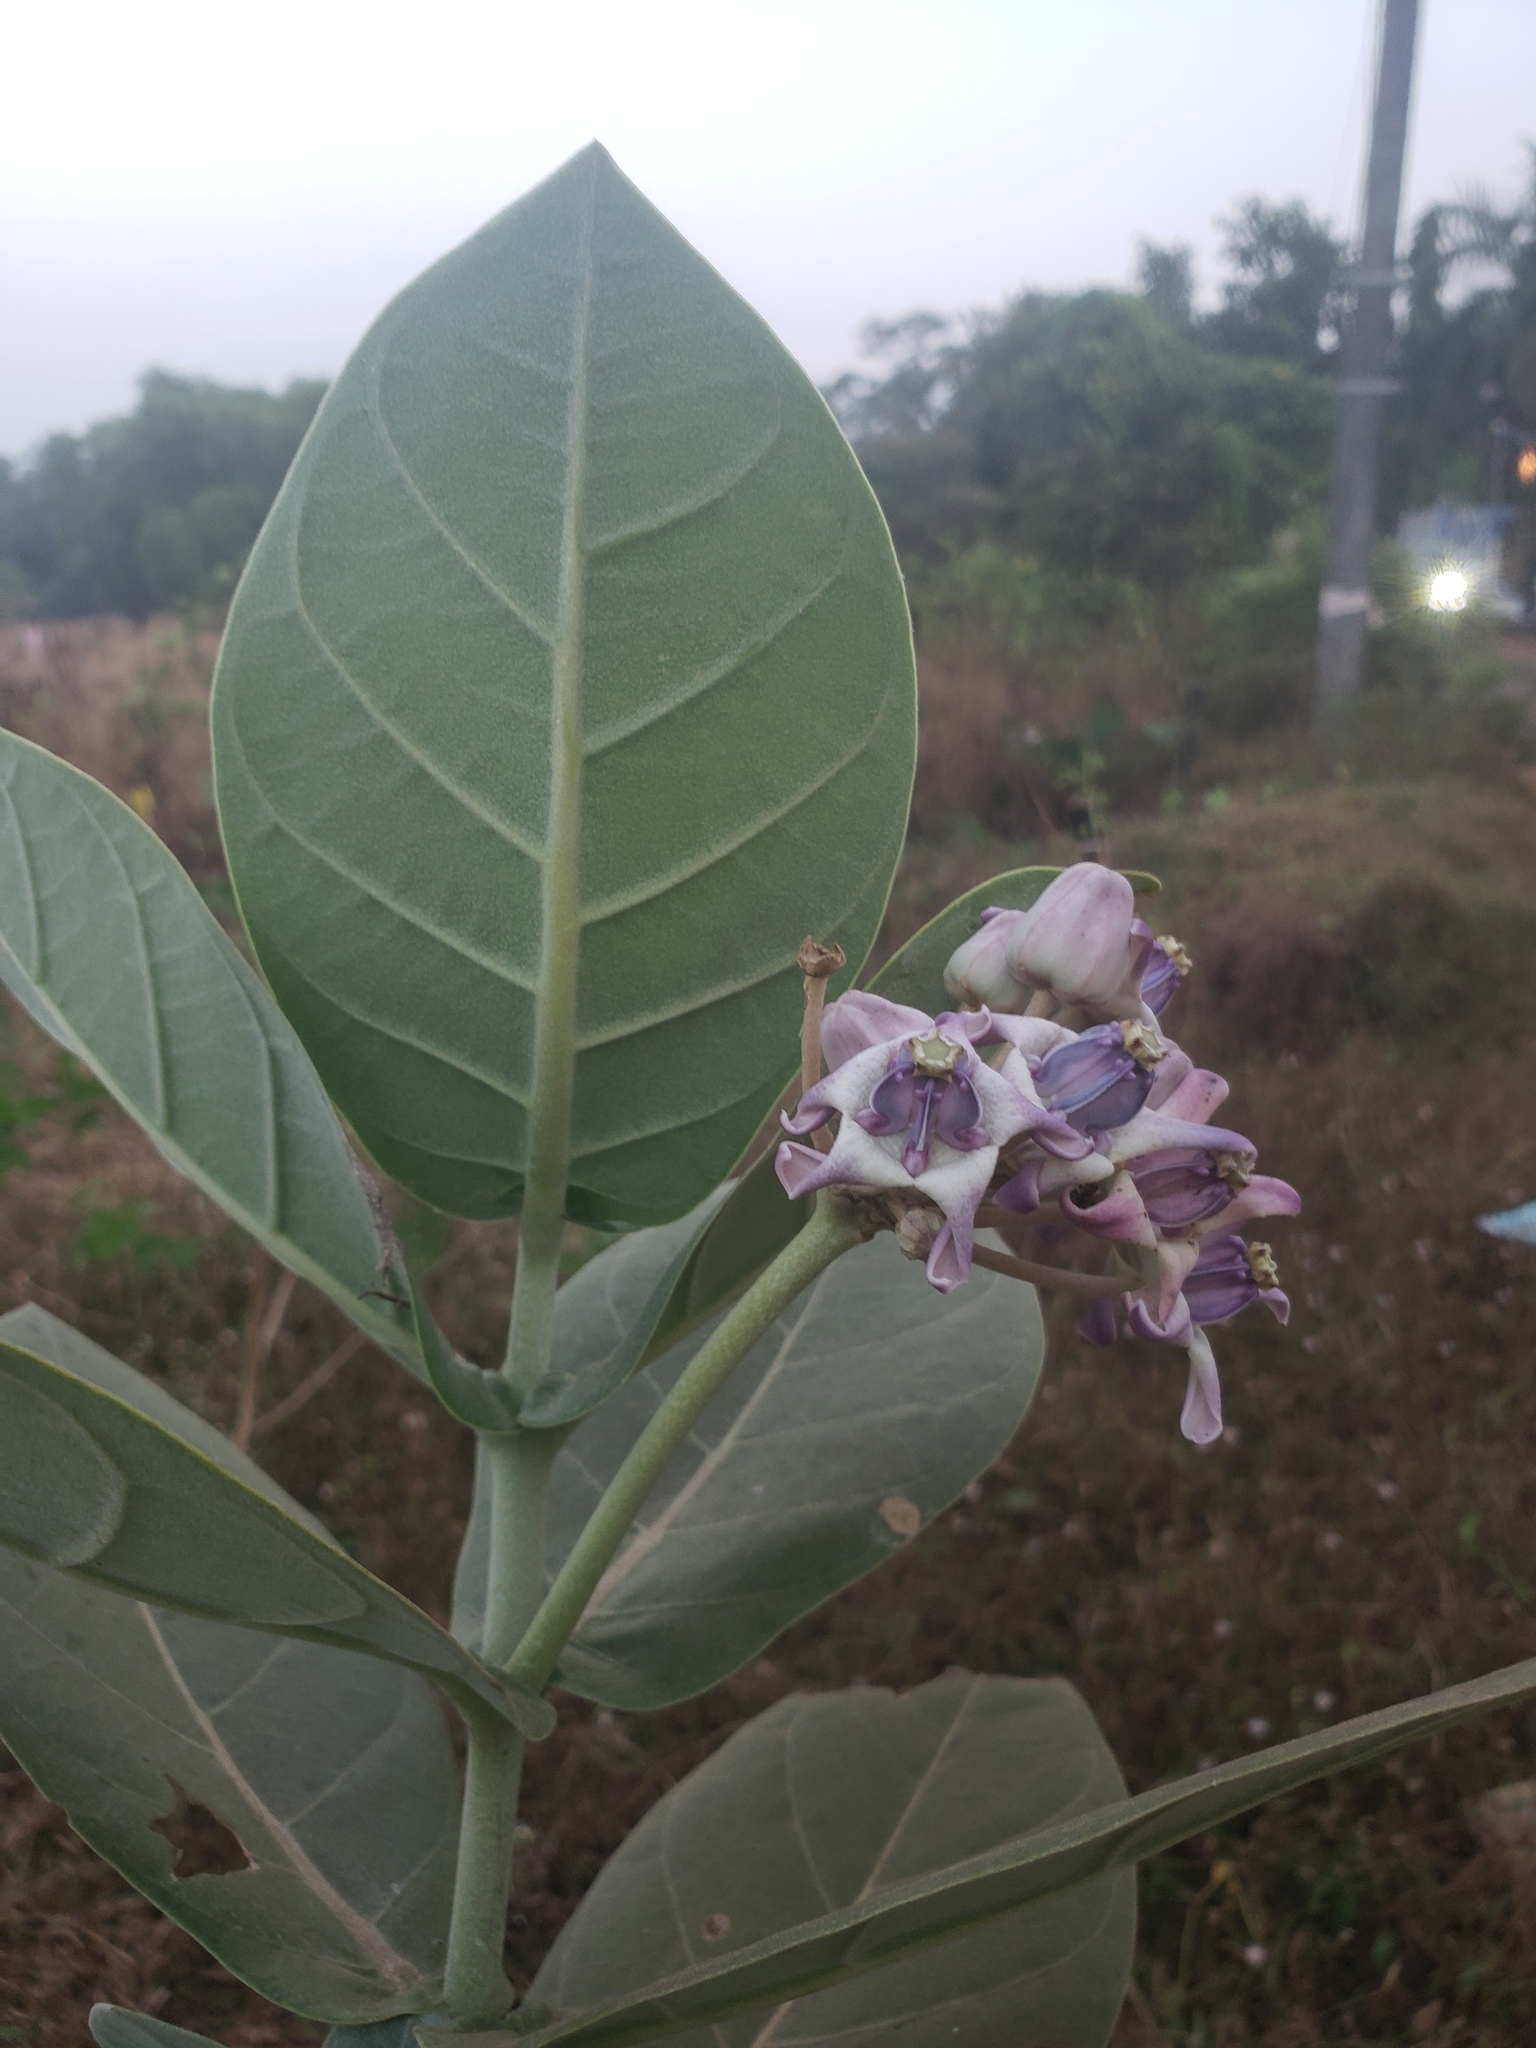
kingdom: Plantae
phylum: Tracheophyta
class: Magnoliopsida
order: Gentianales
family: Apocynaceae
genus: Calotropis
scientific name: Calotropis gigantea
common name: Crown flower
